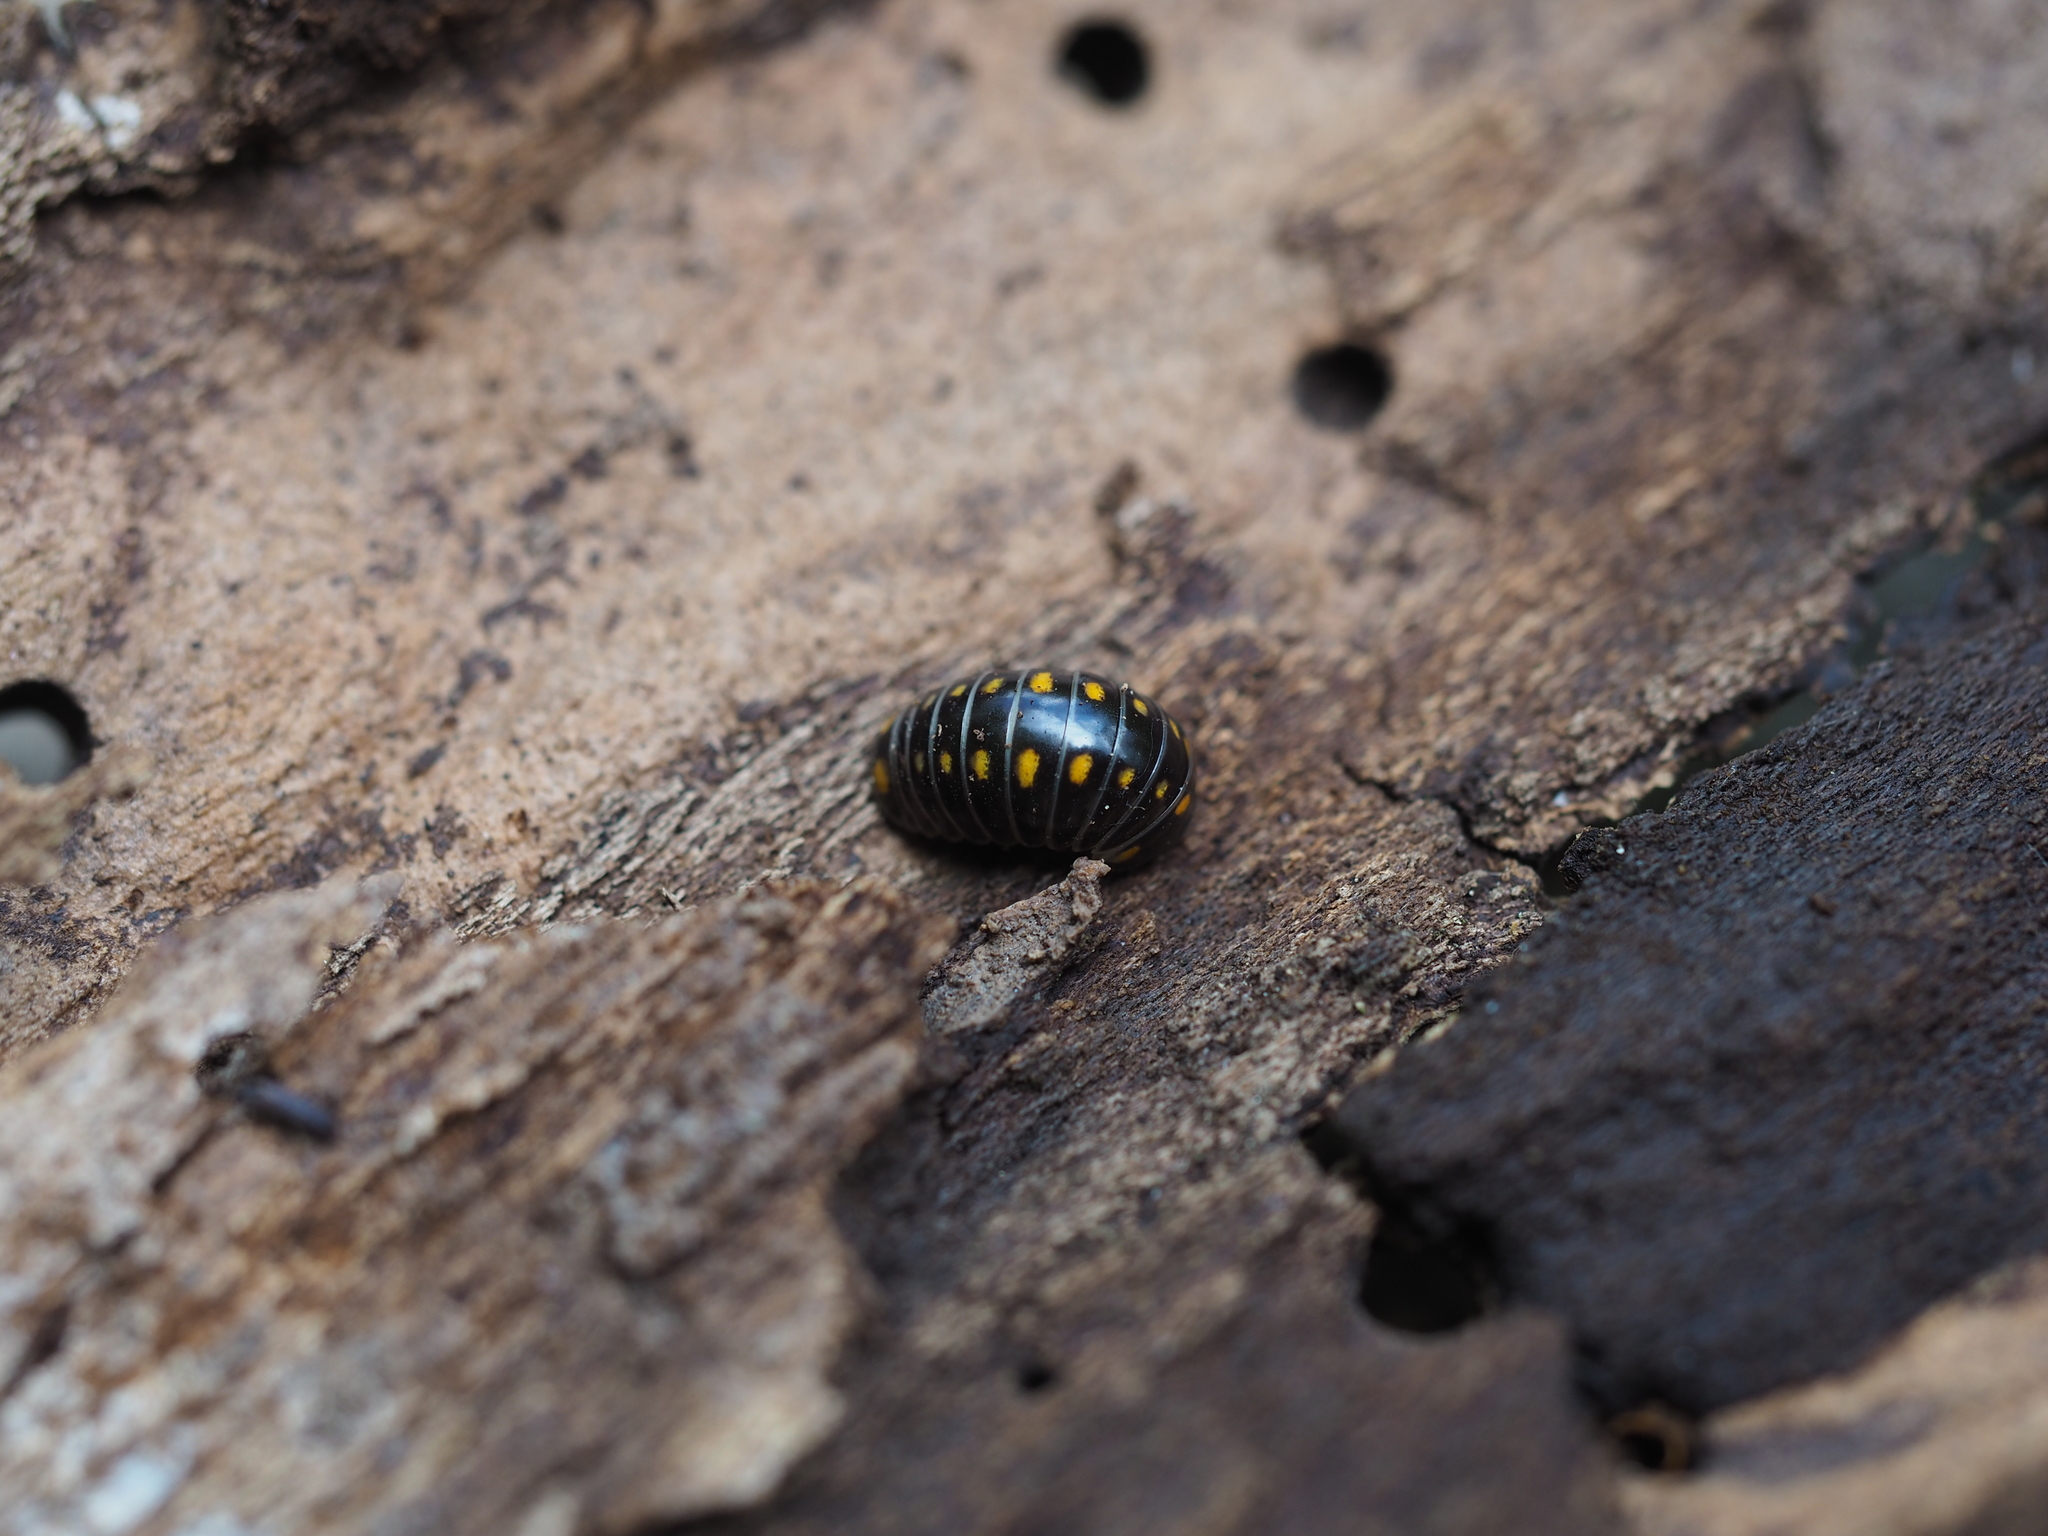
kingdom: Animalia
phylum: Arthropoda
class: Diplopoda
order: Glomerida
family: Glomeridae
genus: Glomeris
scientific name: Glomeris pustulata
